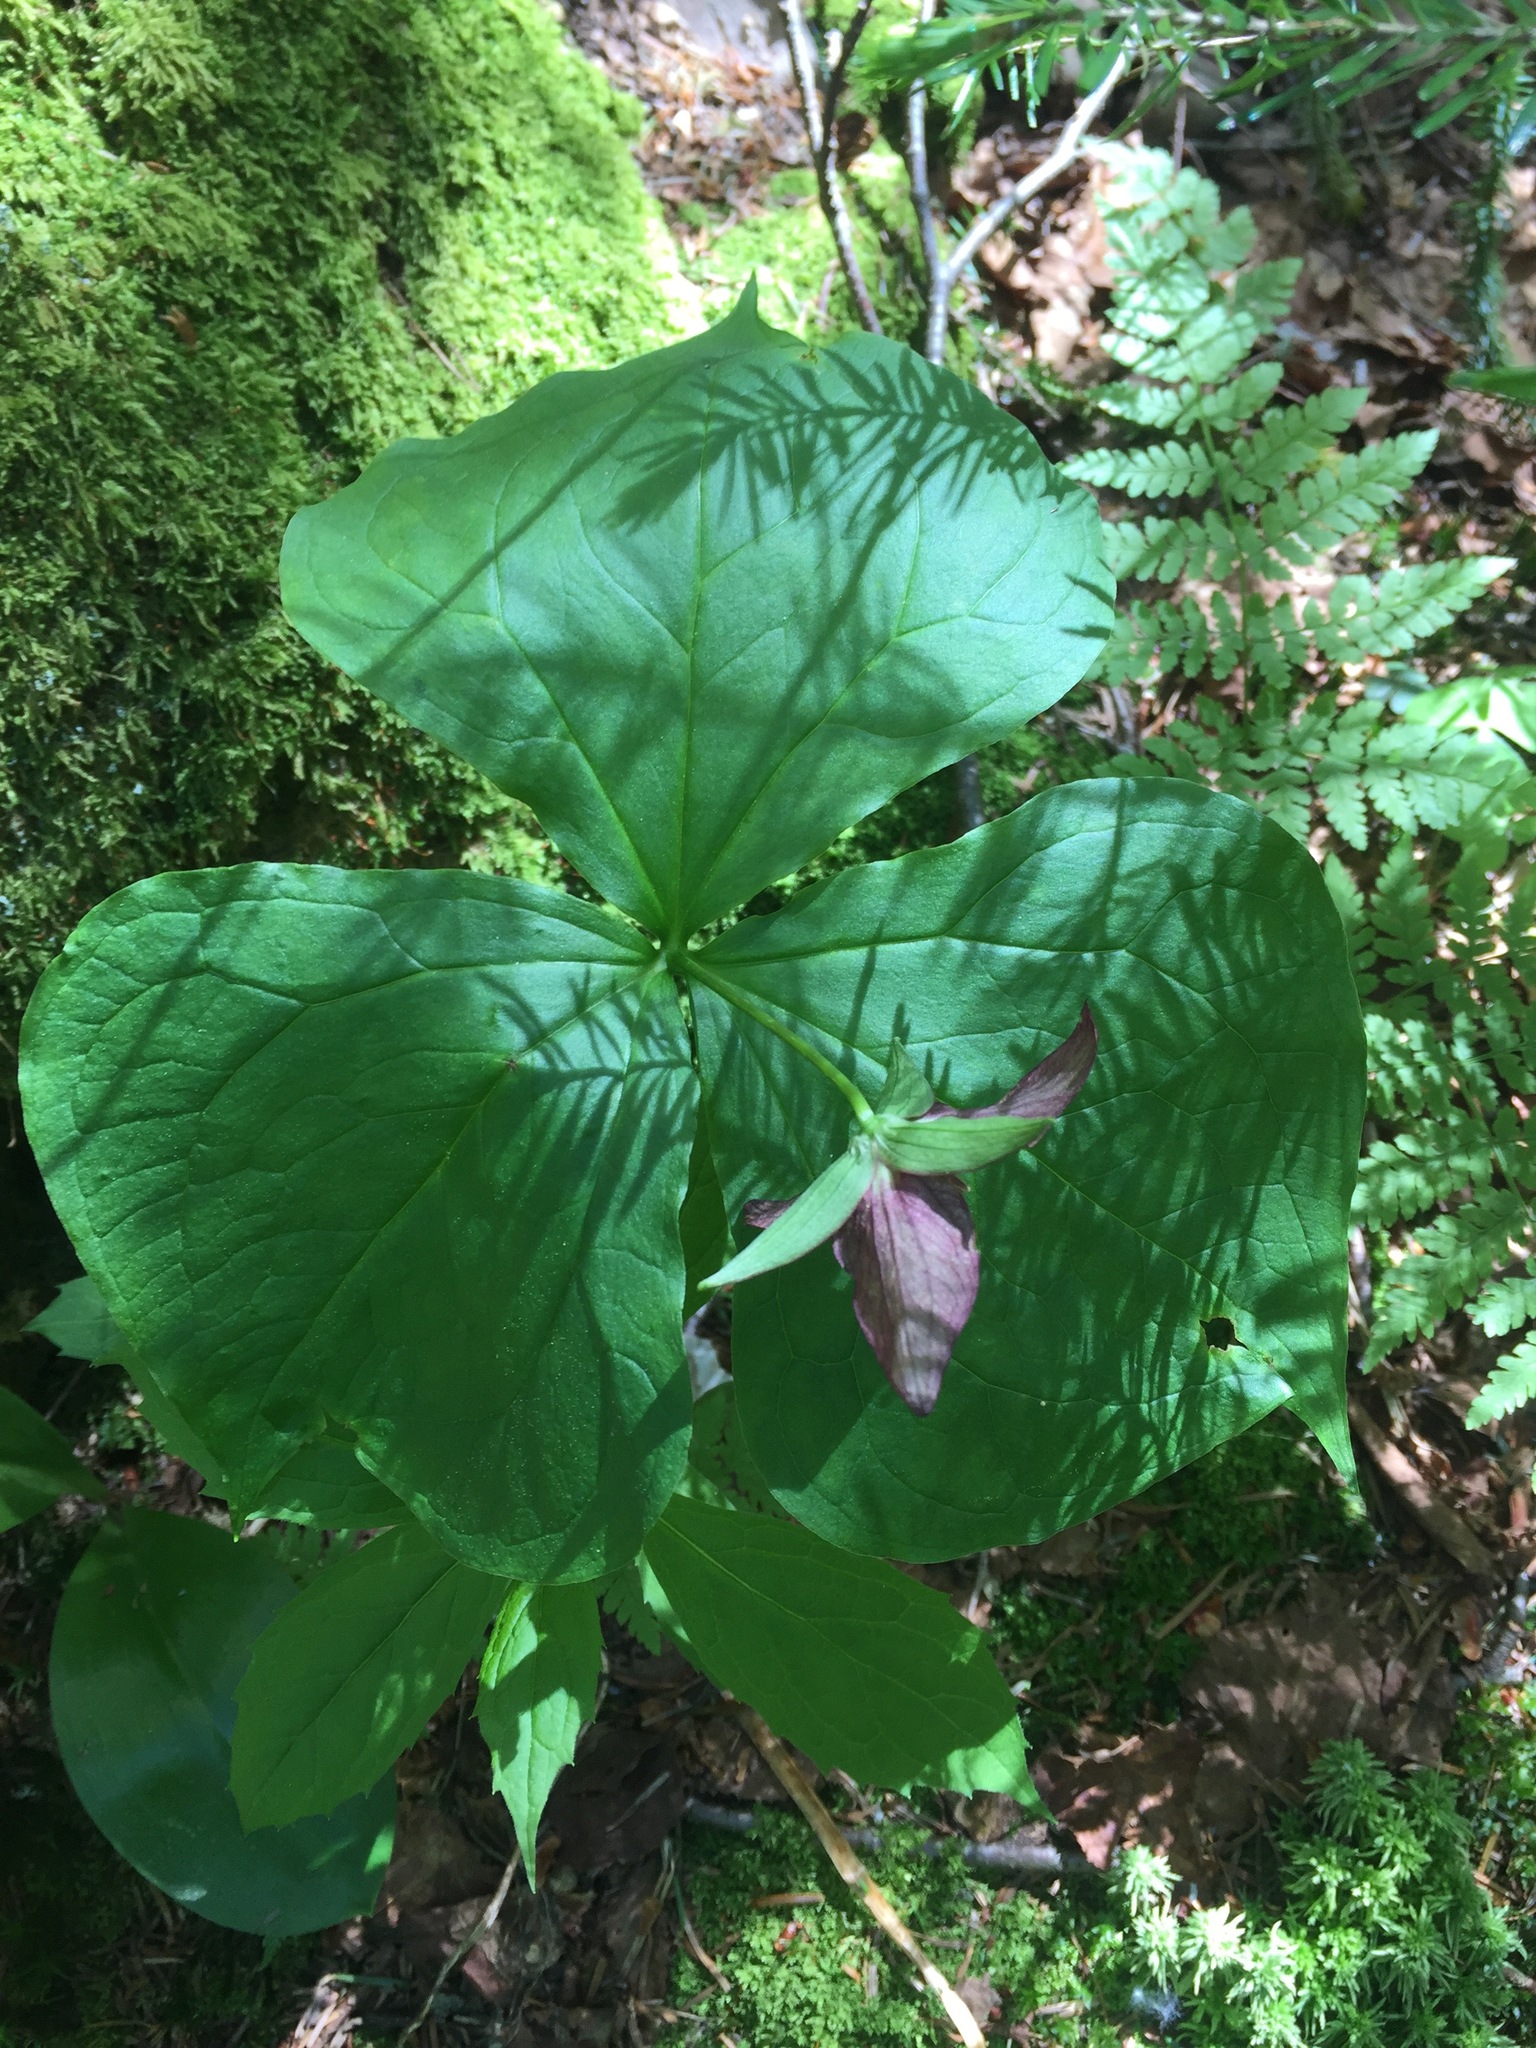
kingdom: Plantae
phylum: Tracheophyta
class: Liliopsida
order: Liliales
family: Melanthiaceae
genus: Trillium
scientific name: Trillium erectum
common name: Purple trillium
